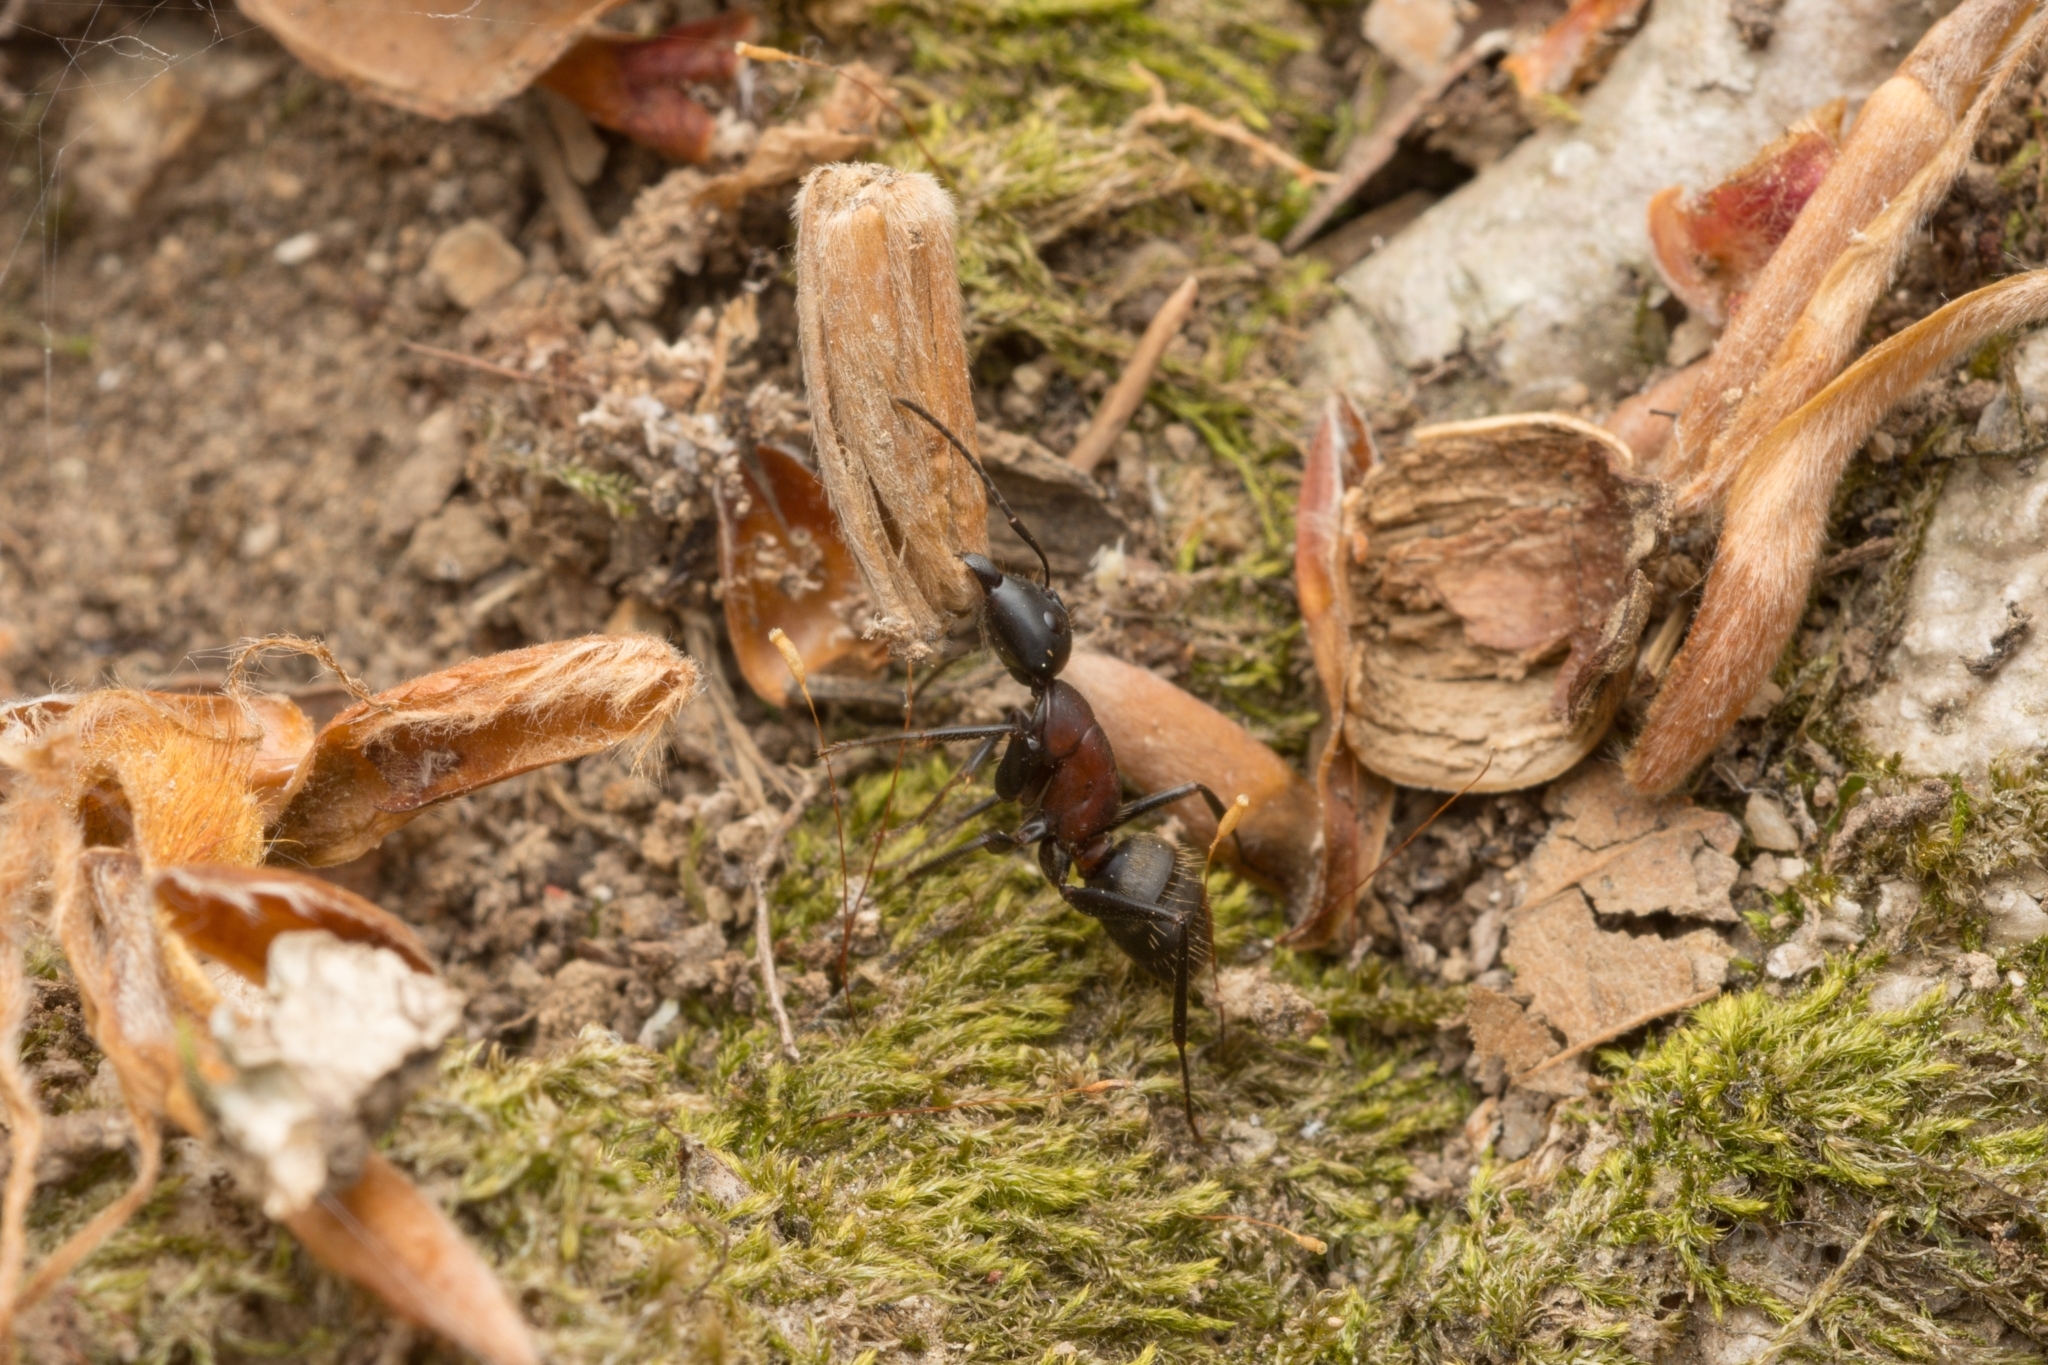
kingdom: Animalia
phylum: Arthropoda
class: Insecta
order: Hymenoptera
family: Formicidae
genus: Camponotus
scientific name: Camponotus atrox
